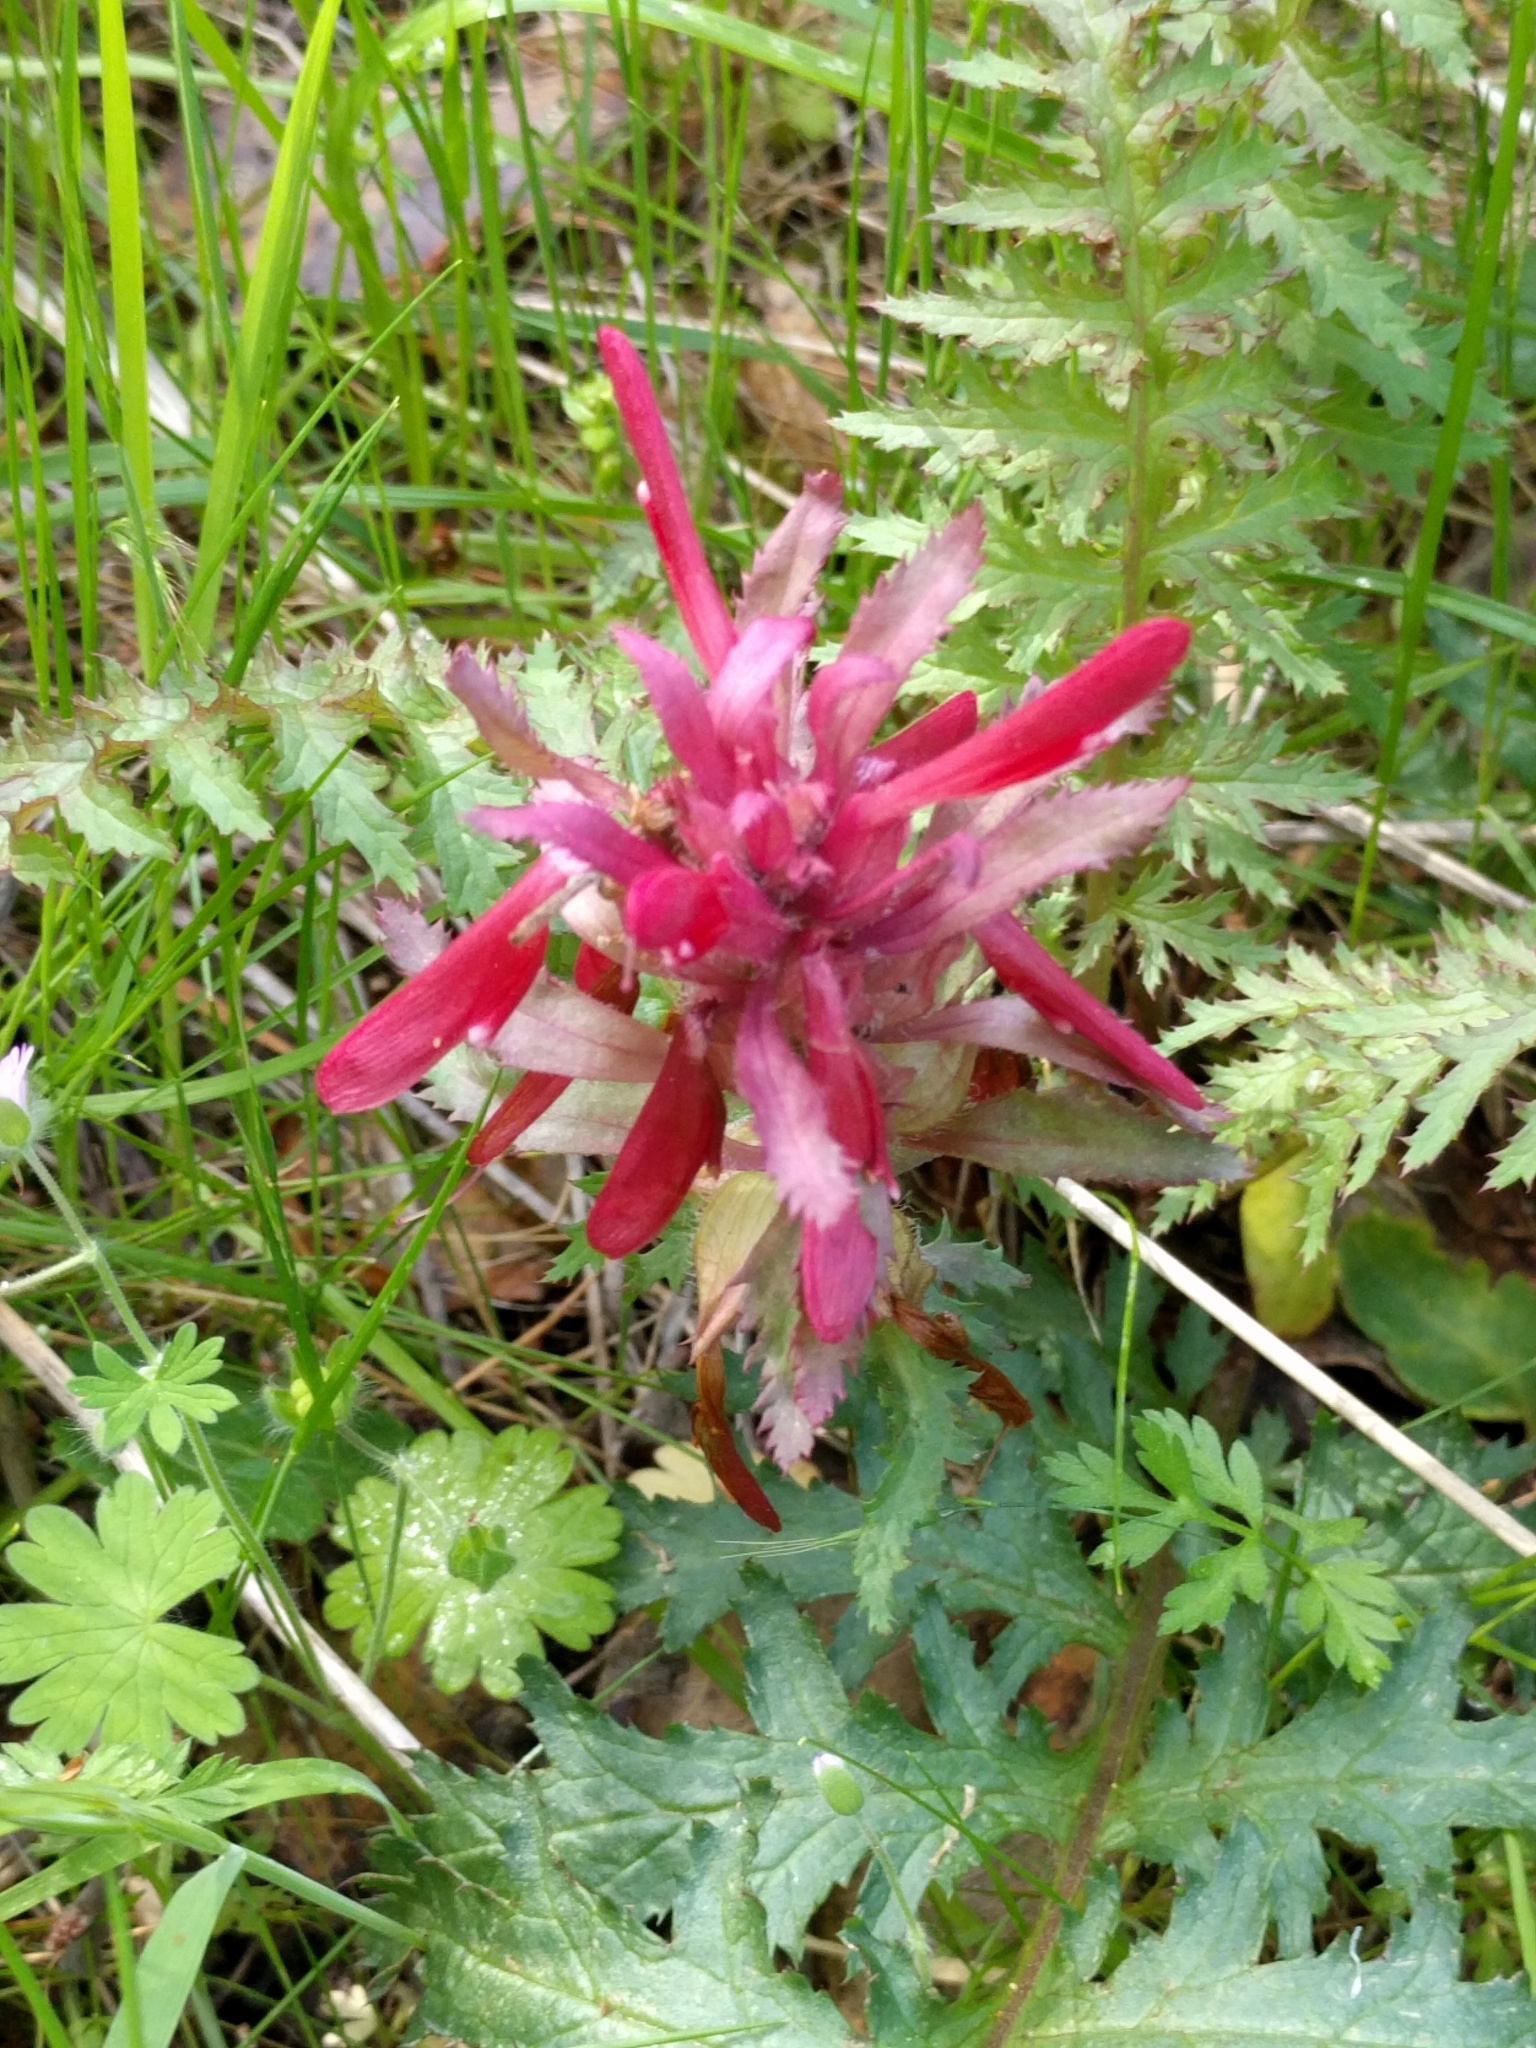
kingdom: Plantae
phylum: Tracheophyta
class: Magnoliopsida
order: Lamiales
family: Orobanchaceae
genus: Pedicularis
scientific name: Pedicularis densiflora
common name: Indian warrior
